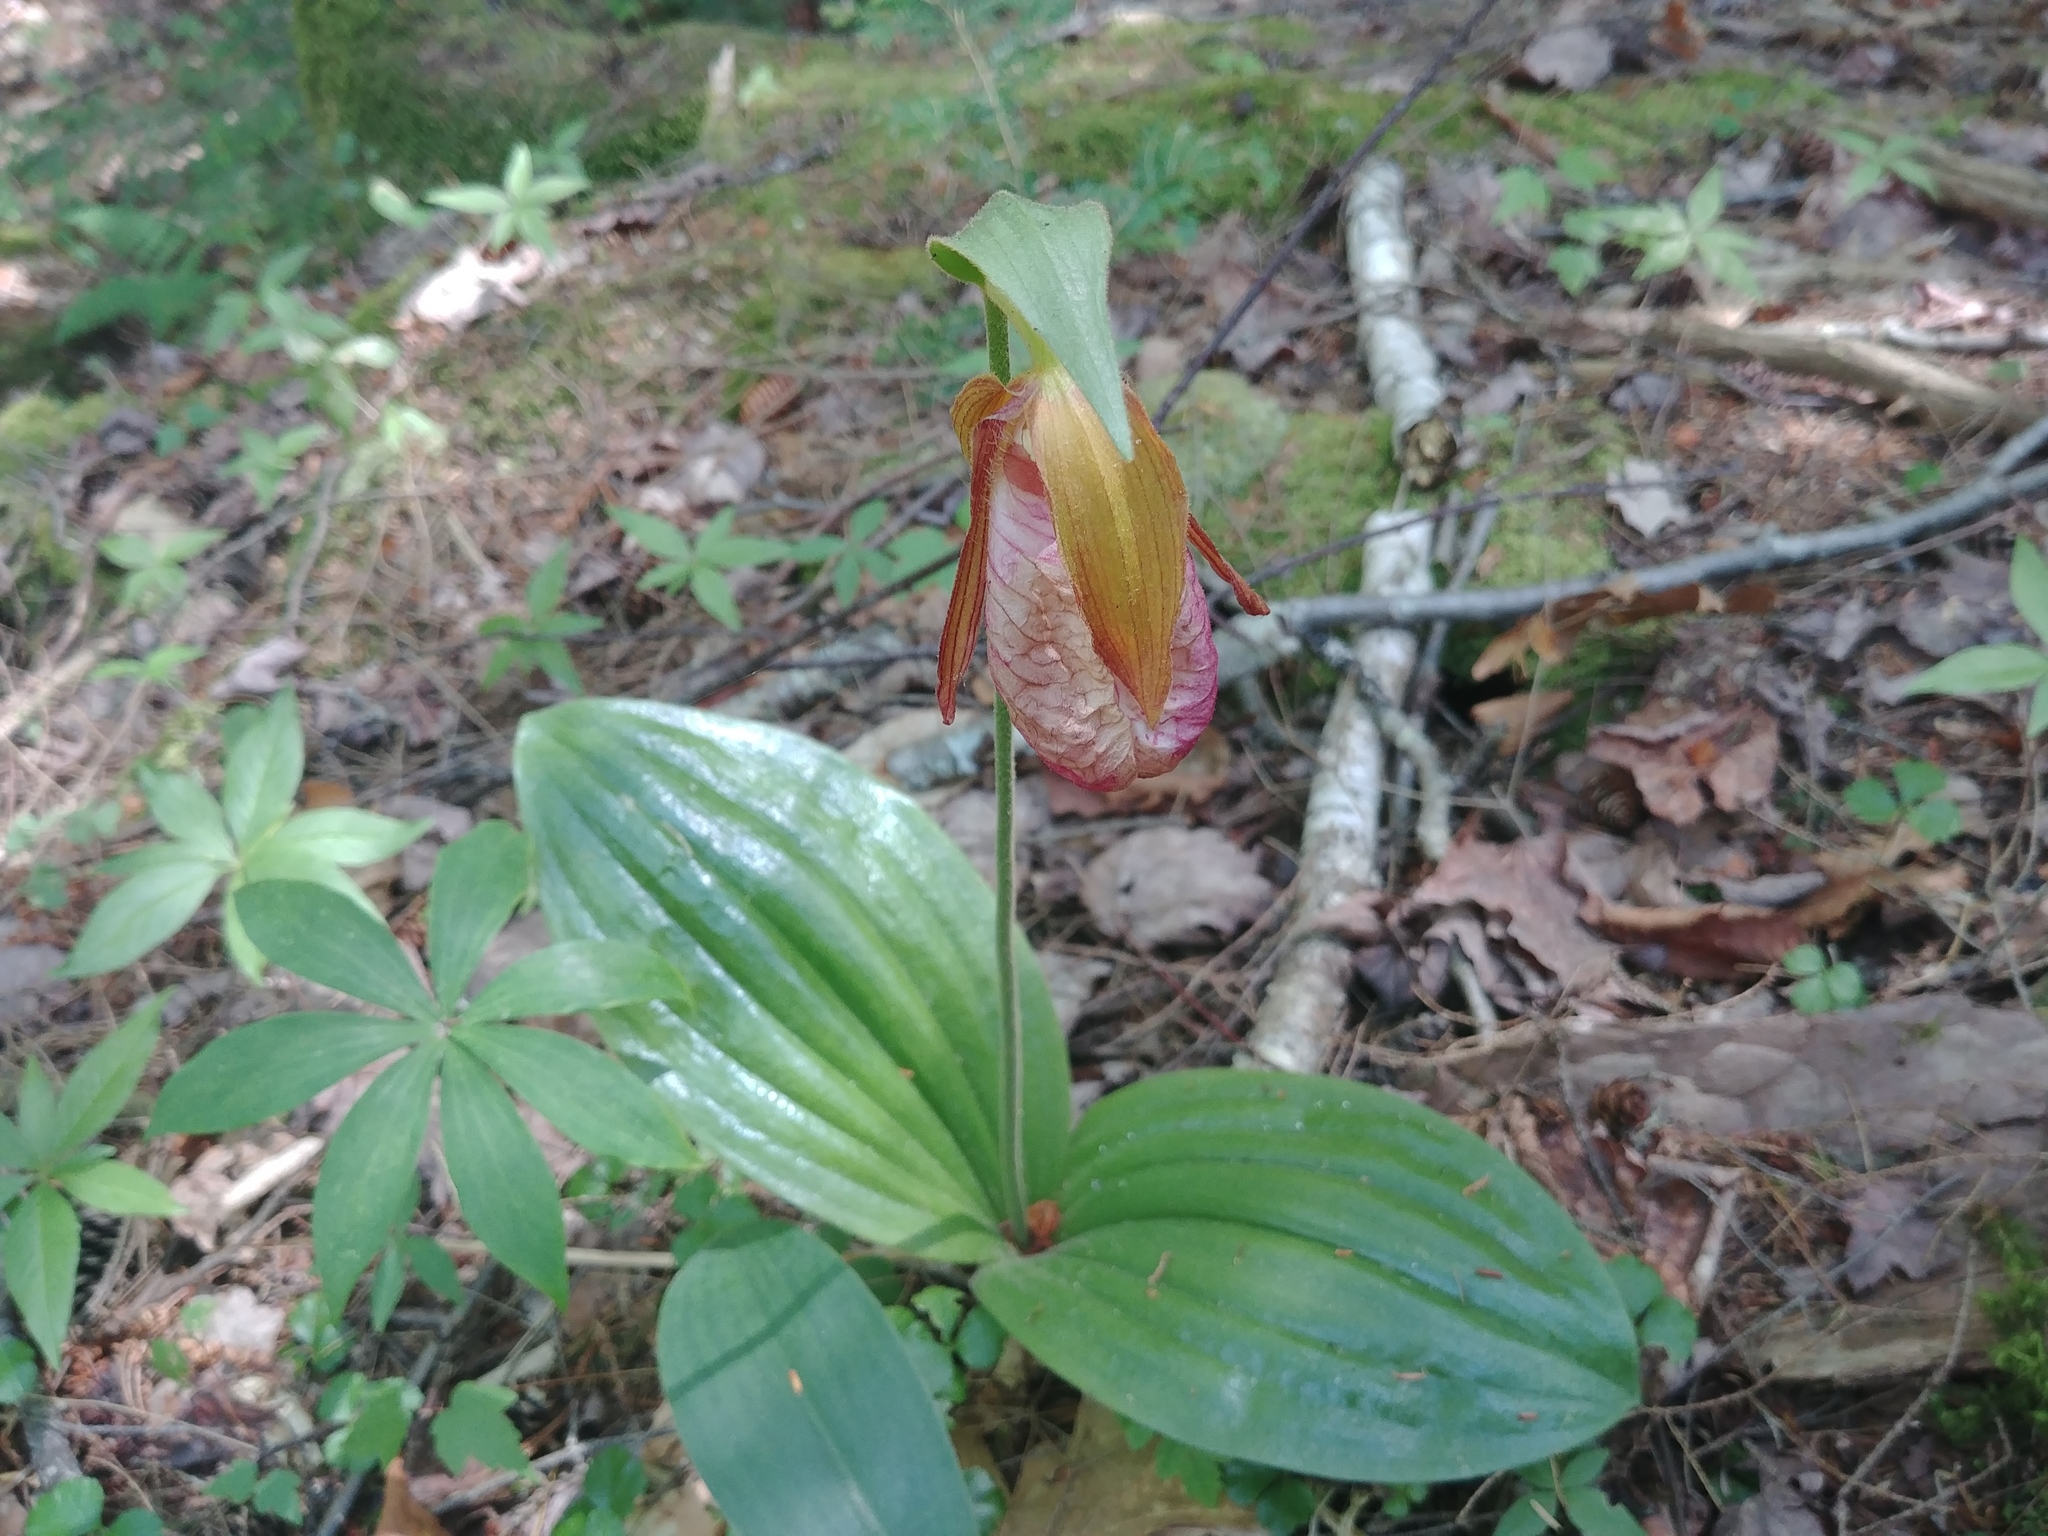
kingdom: Plantae
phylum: Tracheophyta
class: Liliopsida
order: Asparagales
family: Orchidaceae
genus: Cypripedium
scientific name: Cypripedium acaule
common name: Pink lady's-slipper
